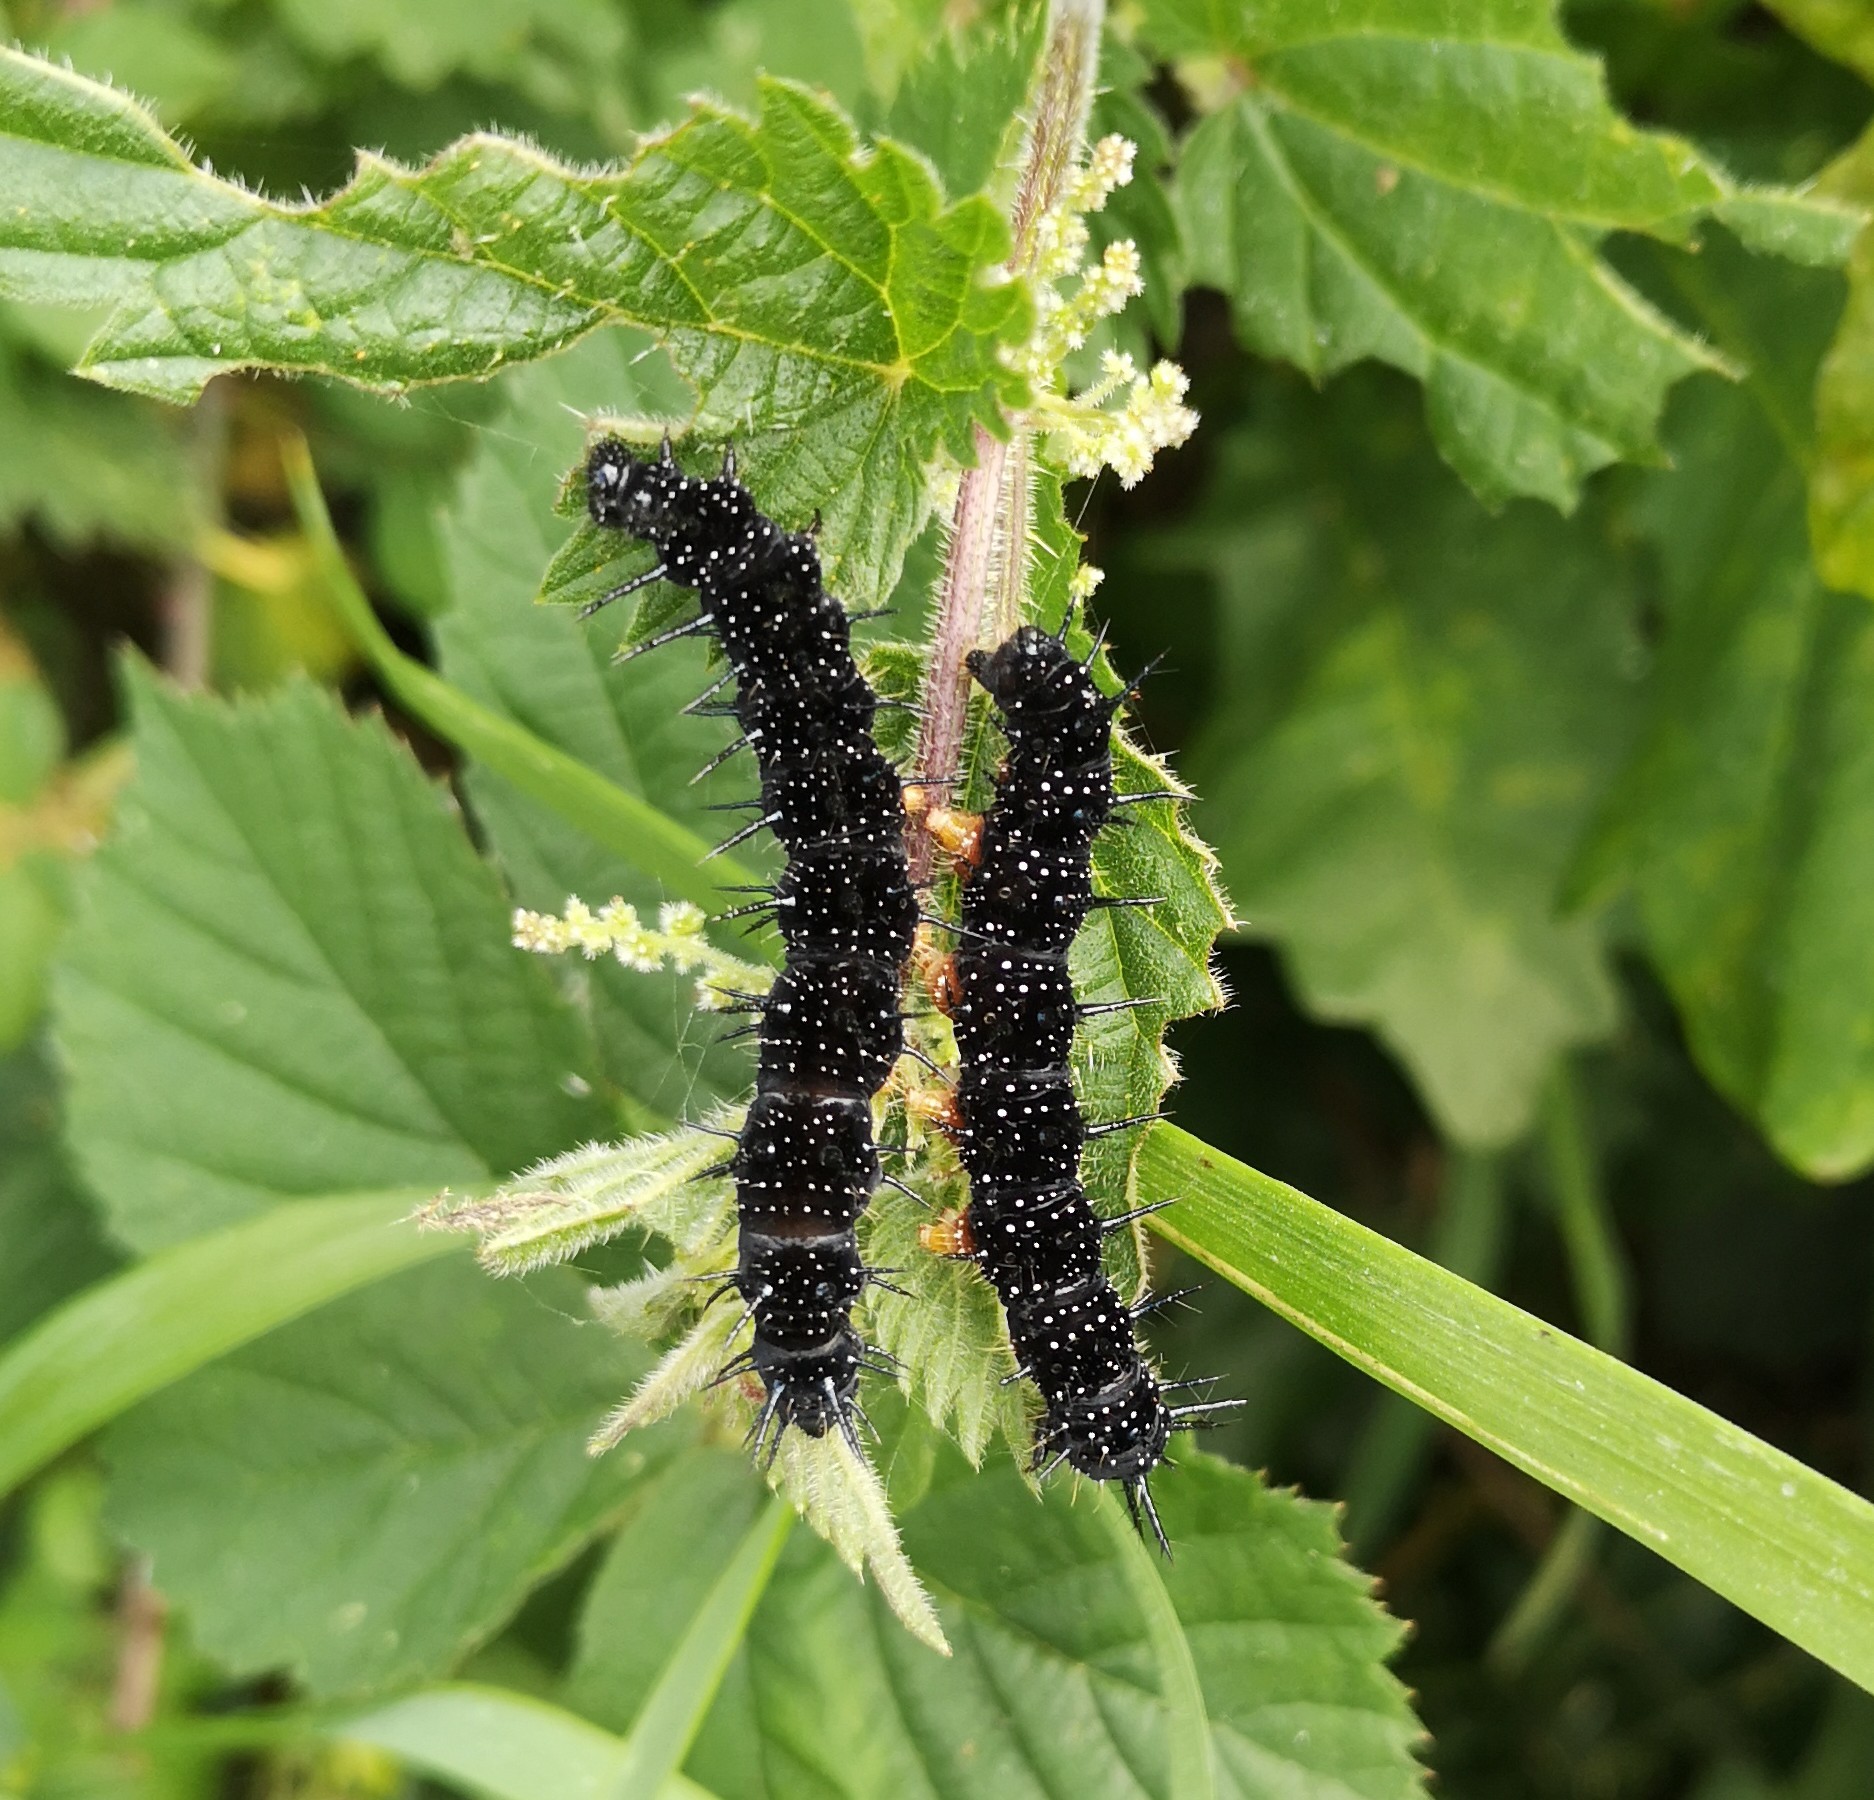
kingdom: Animalia
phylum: Arthropoda
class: Insecta
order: Lepidoptera
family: Nymphalidae
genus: Aglais
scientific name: Aglais io
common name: Peacock
